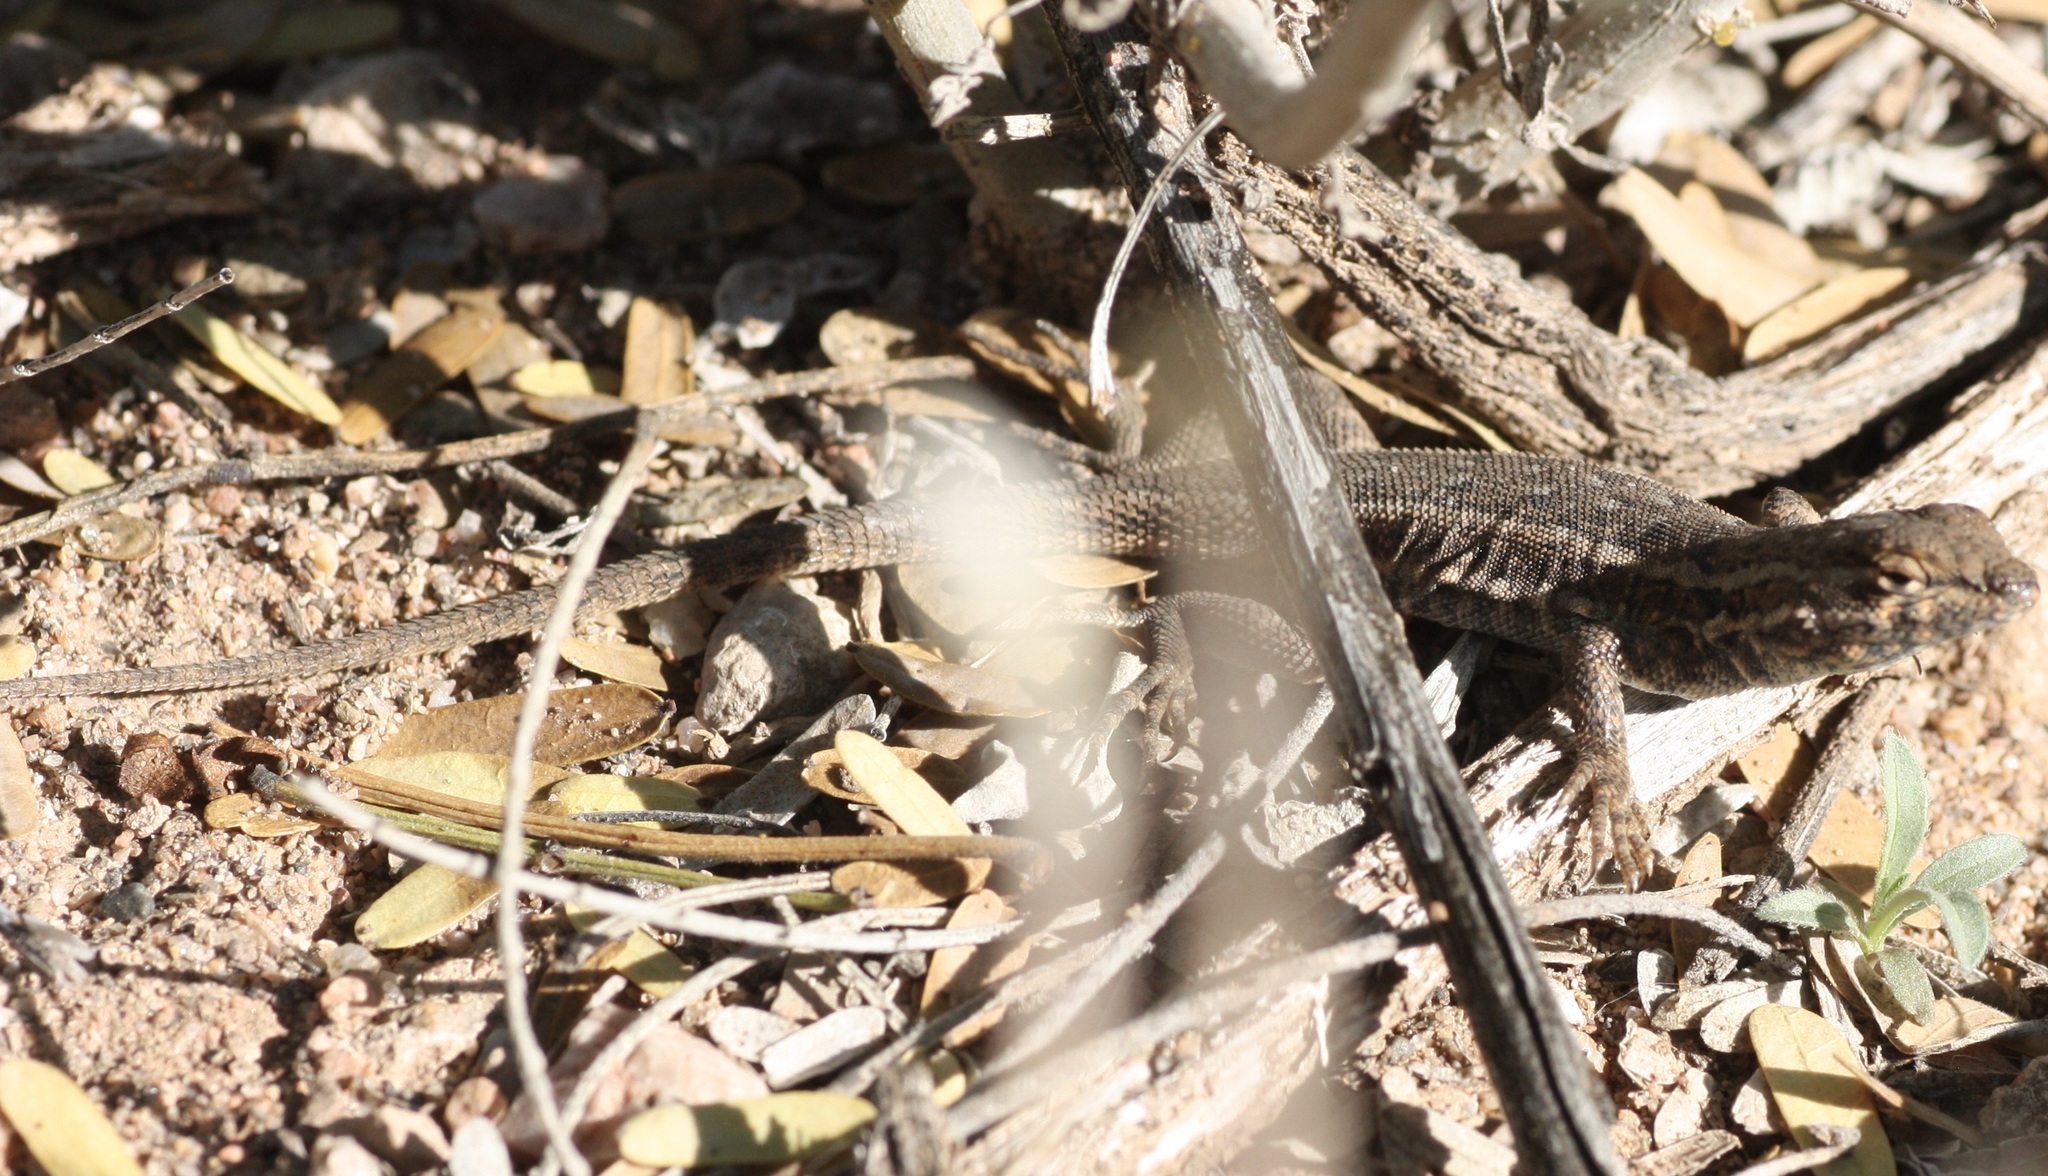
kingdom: Animalia
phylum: Chordata
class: Squamata
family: Phrynosomatidae
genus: Uta
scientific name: Uta stansburiana
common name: Side-blotched lizard
